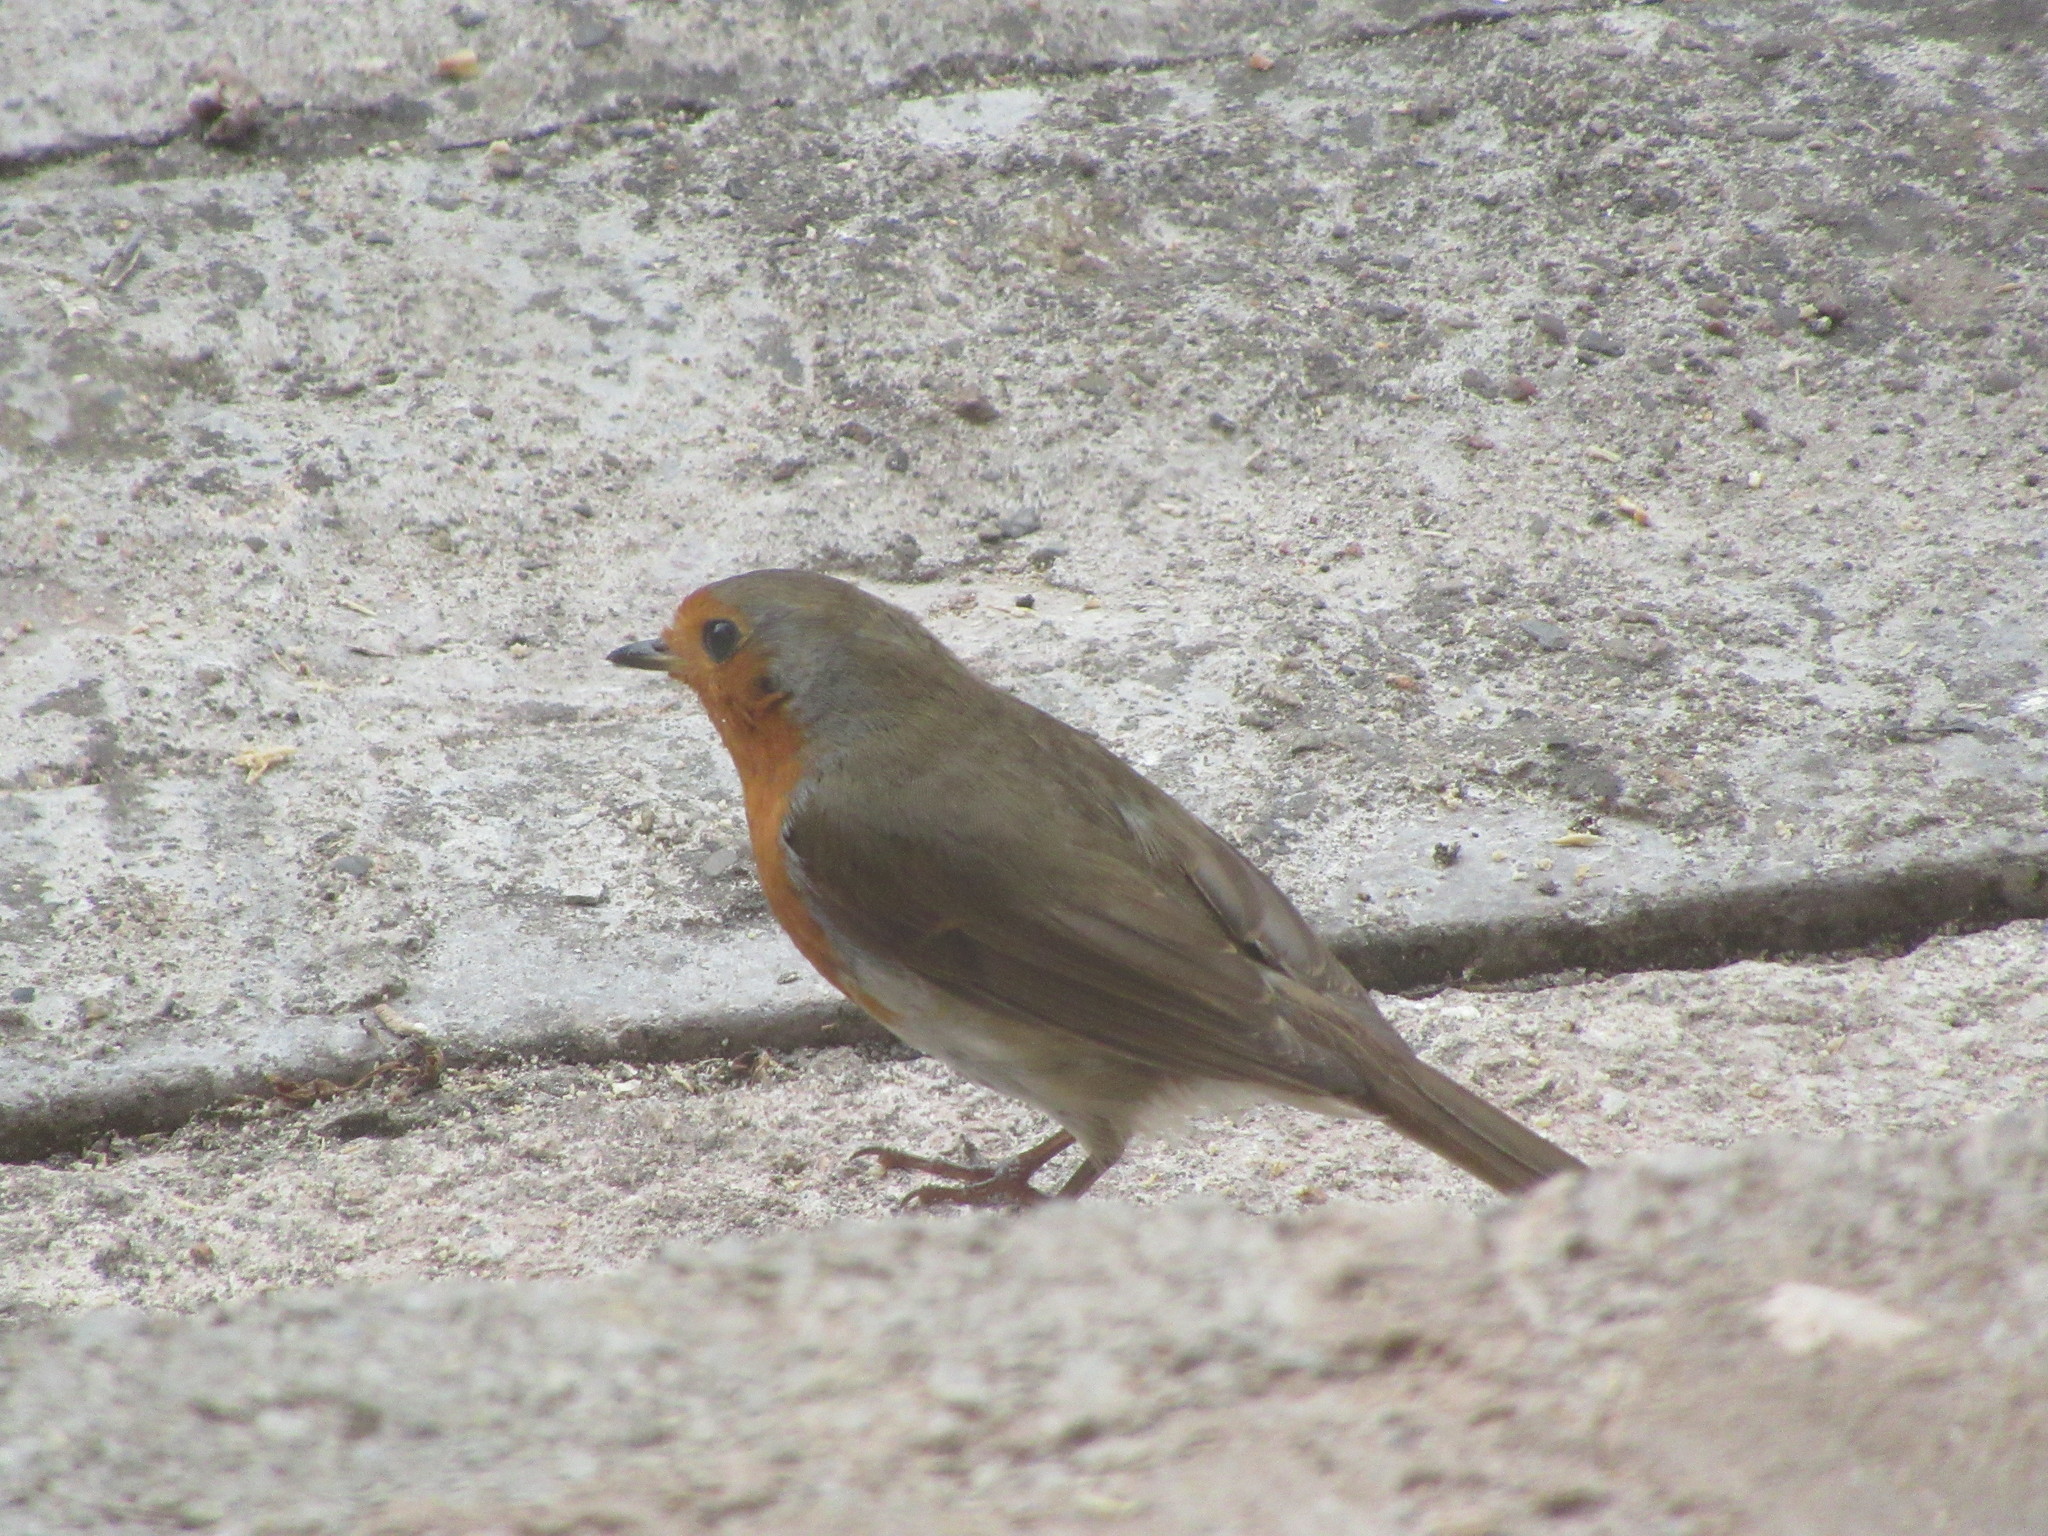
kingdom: Animalia
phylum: Chordata
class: Aves
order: Passeriformes
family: Muscicapidae
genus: Erithacus
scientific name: Erithacus rubecula
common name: European robin
